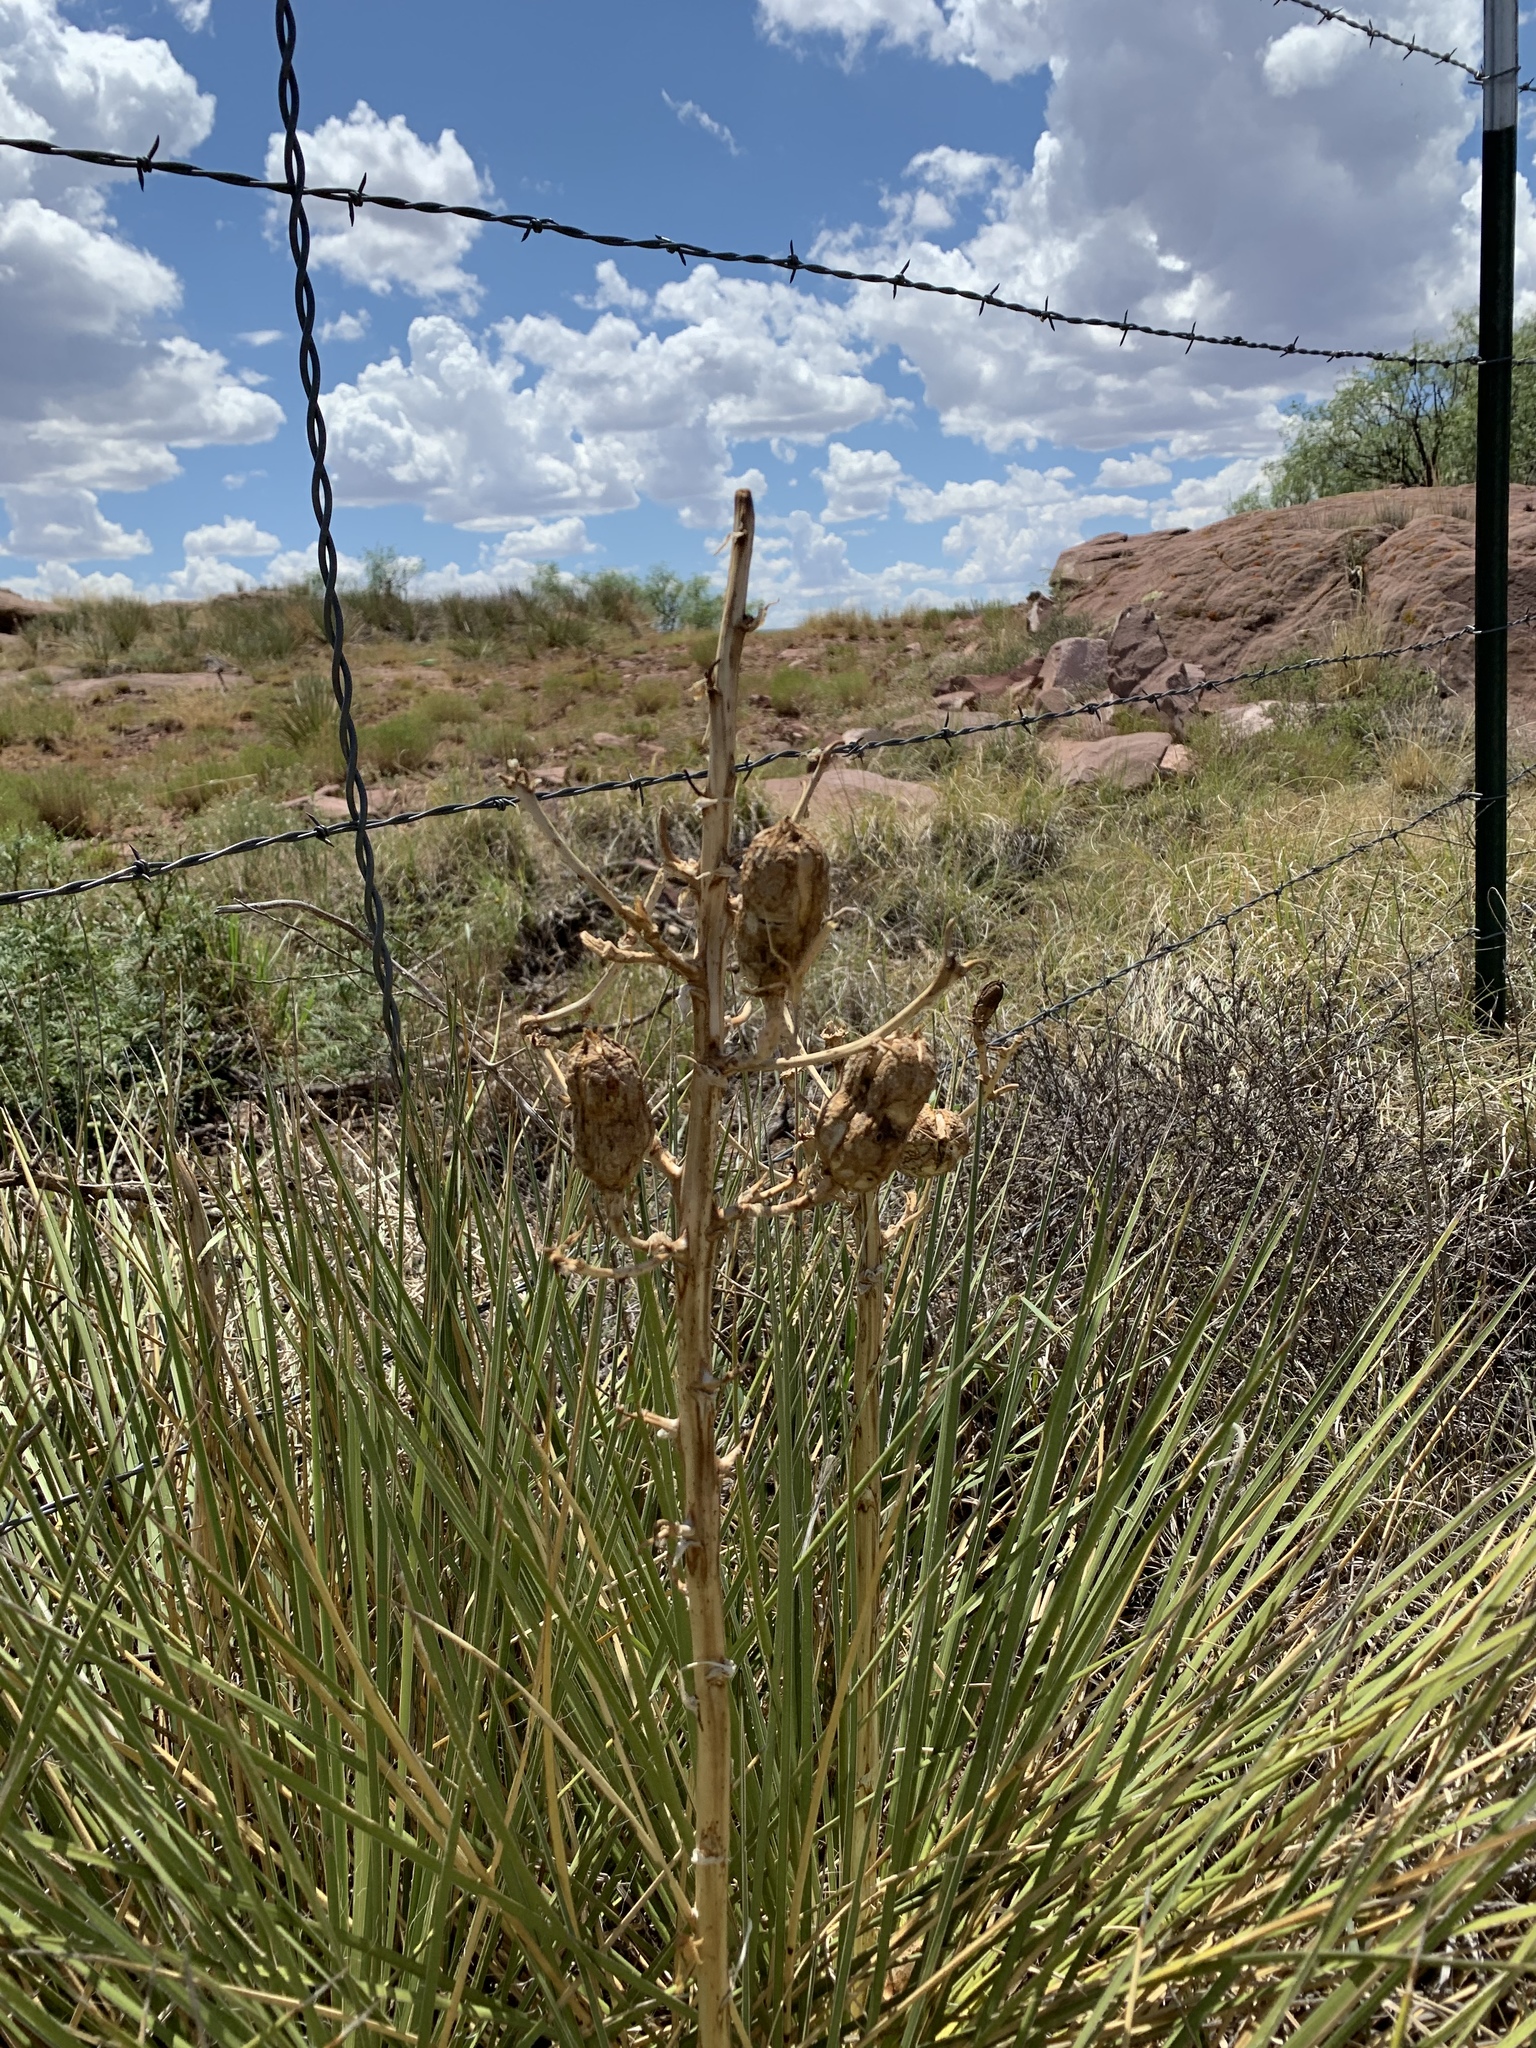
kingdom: Plantae
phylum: Tracheophyta
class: Liliopsida
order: Asparagales
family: Asparagaceae
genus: Yucca
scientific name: Yucca campestris
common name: Plains yucca
